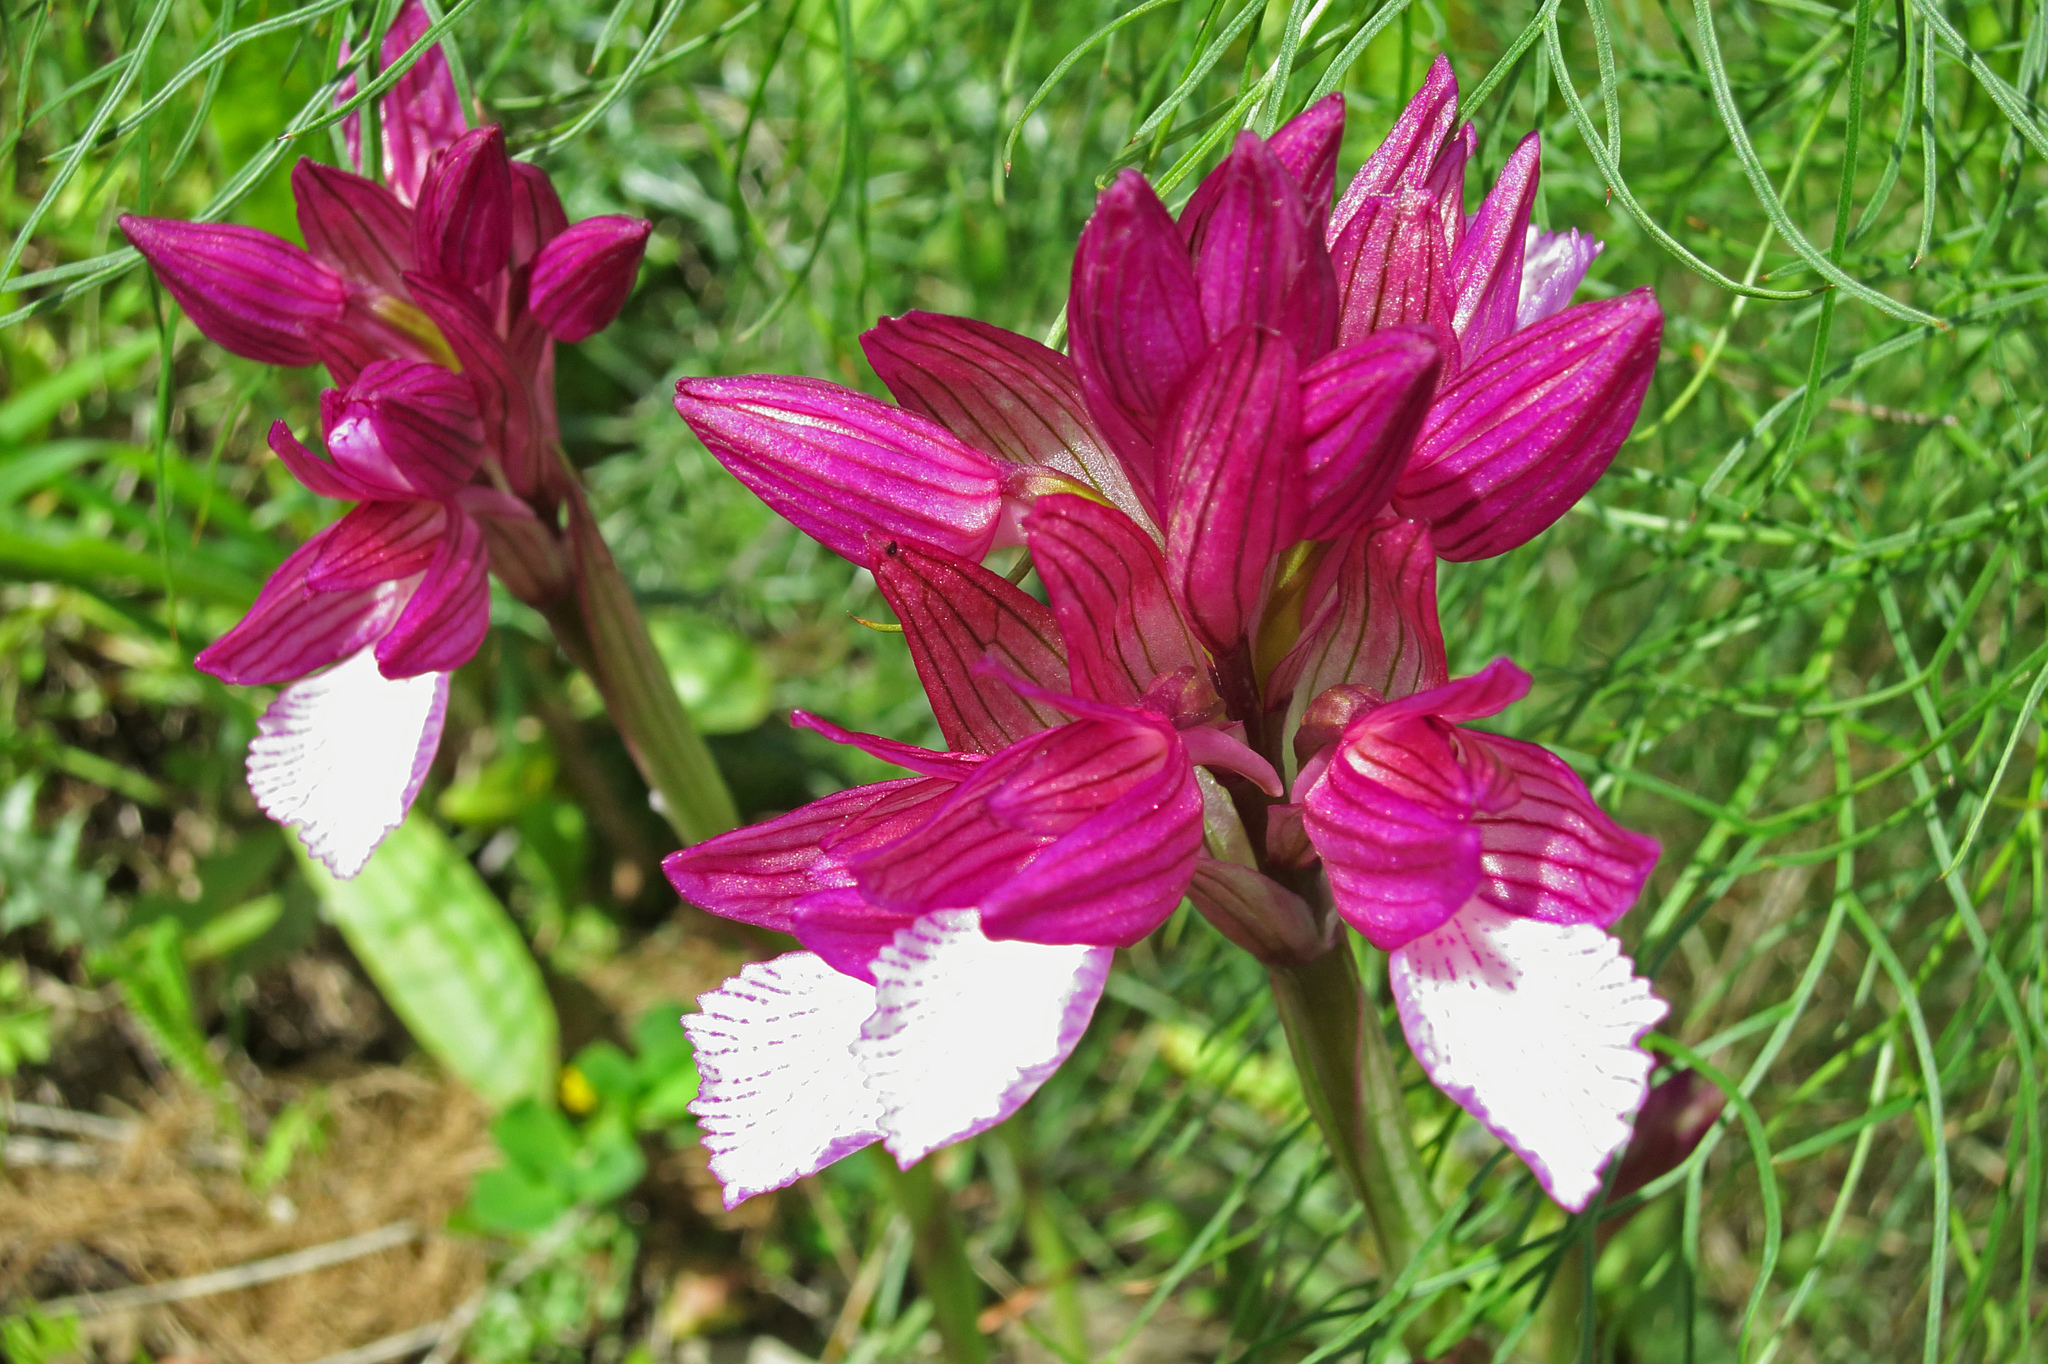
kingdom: Plantae
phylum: Tracheophyta
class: Liliopsida
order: Asparagales
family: Orchidaceae
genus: Anacamptis
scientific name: Anacamptis papilionacea
